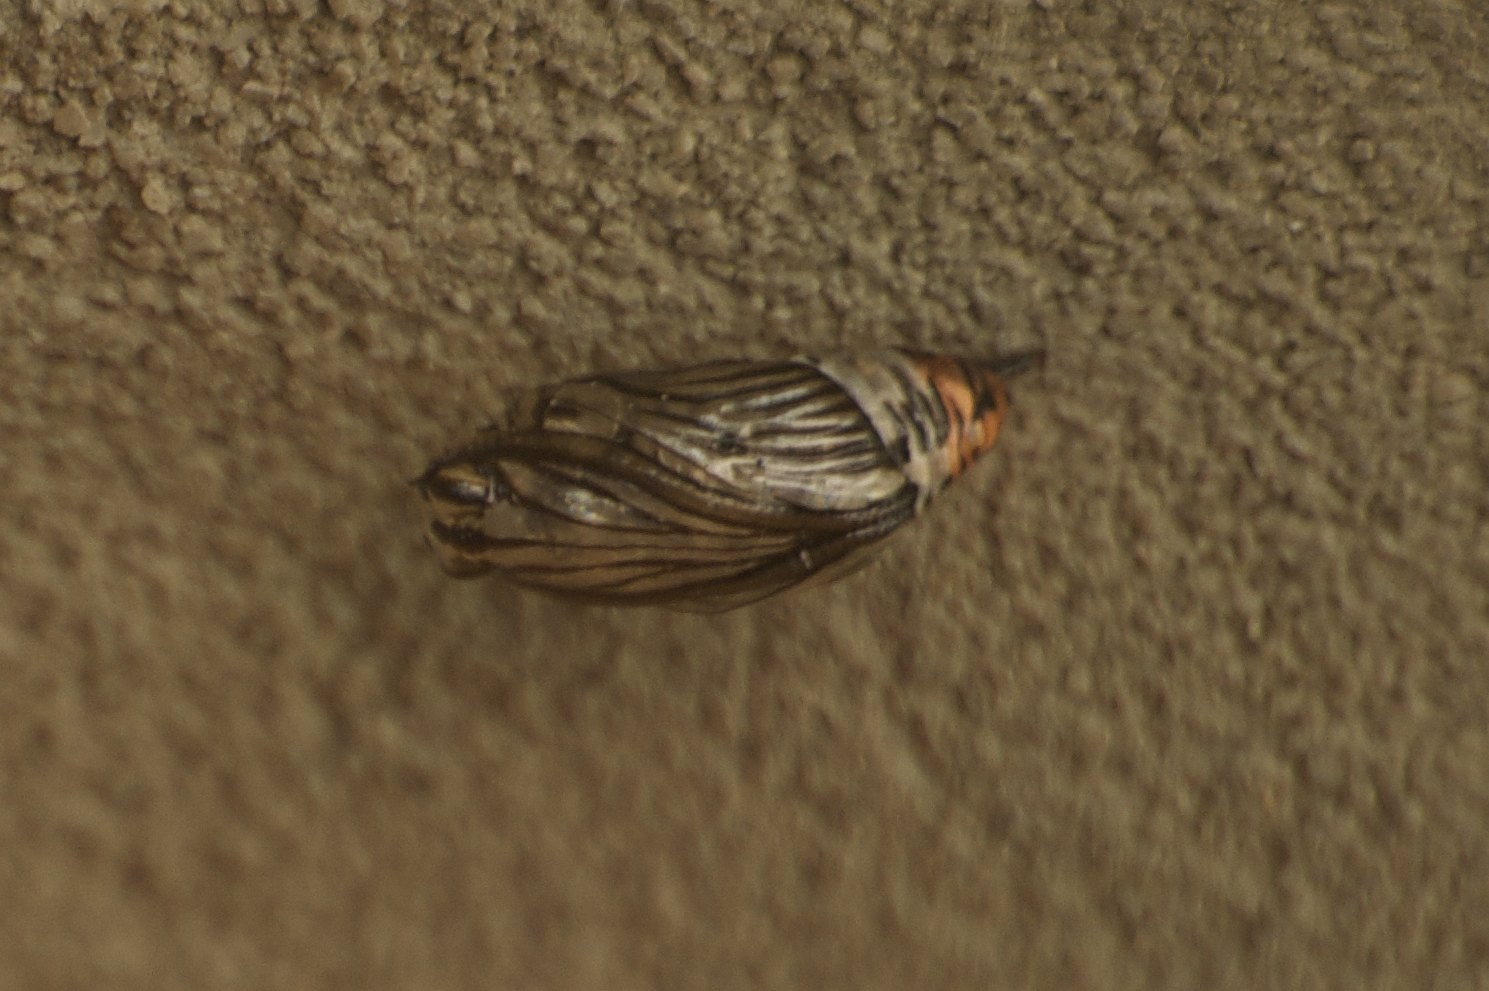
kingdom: Animalia
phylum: Arthropoda
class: Insecta
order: Lepidoptera
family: Notodontidae
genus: Phryganidia
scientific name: Phryganidia californica
